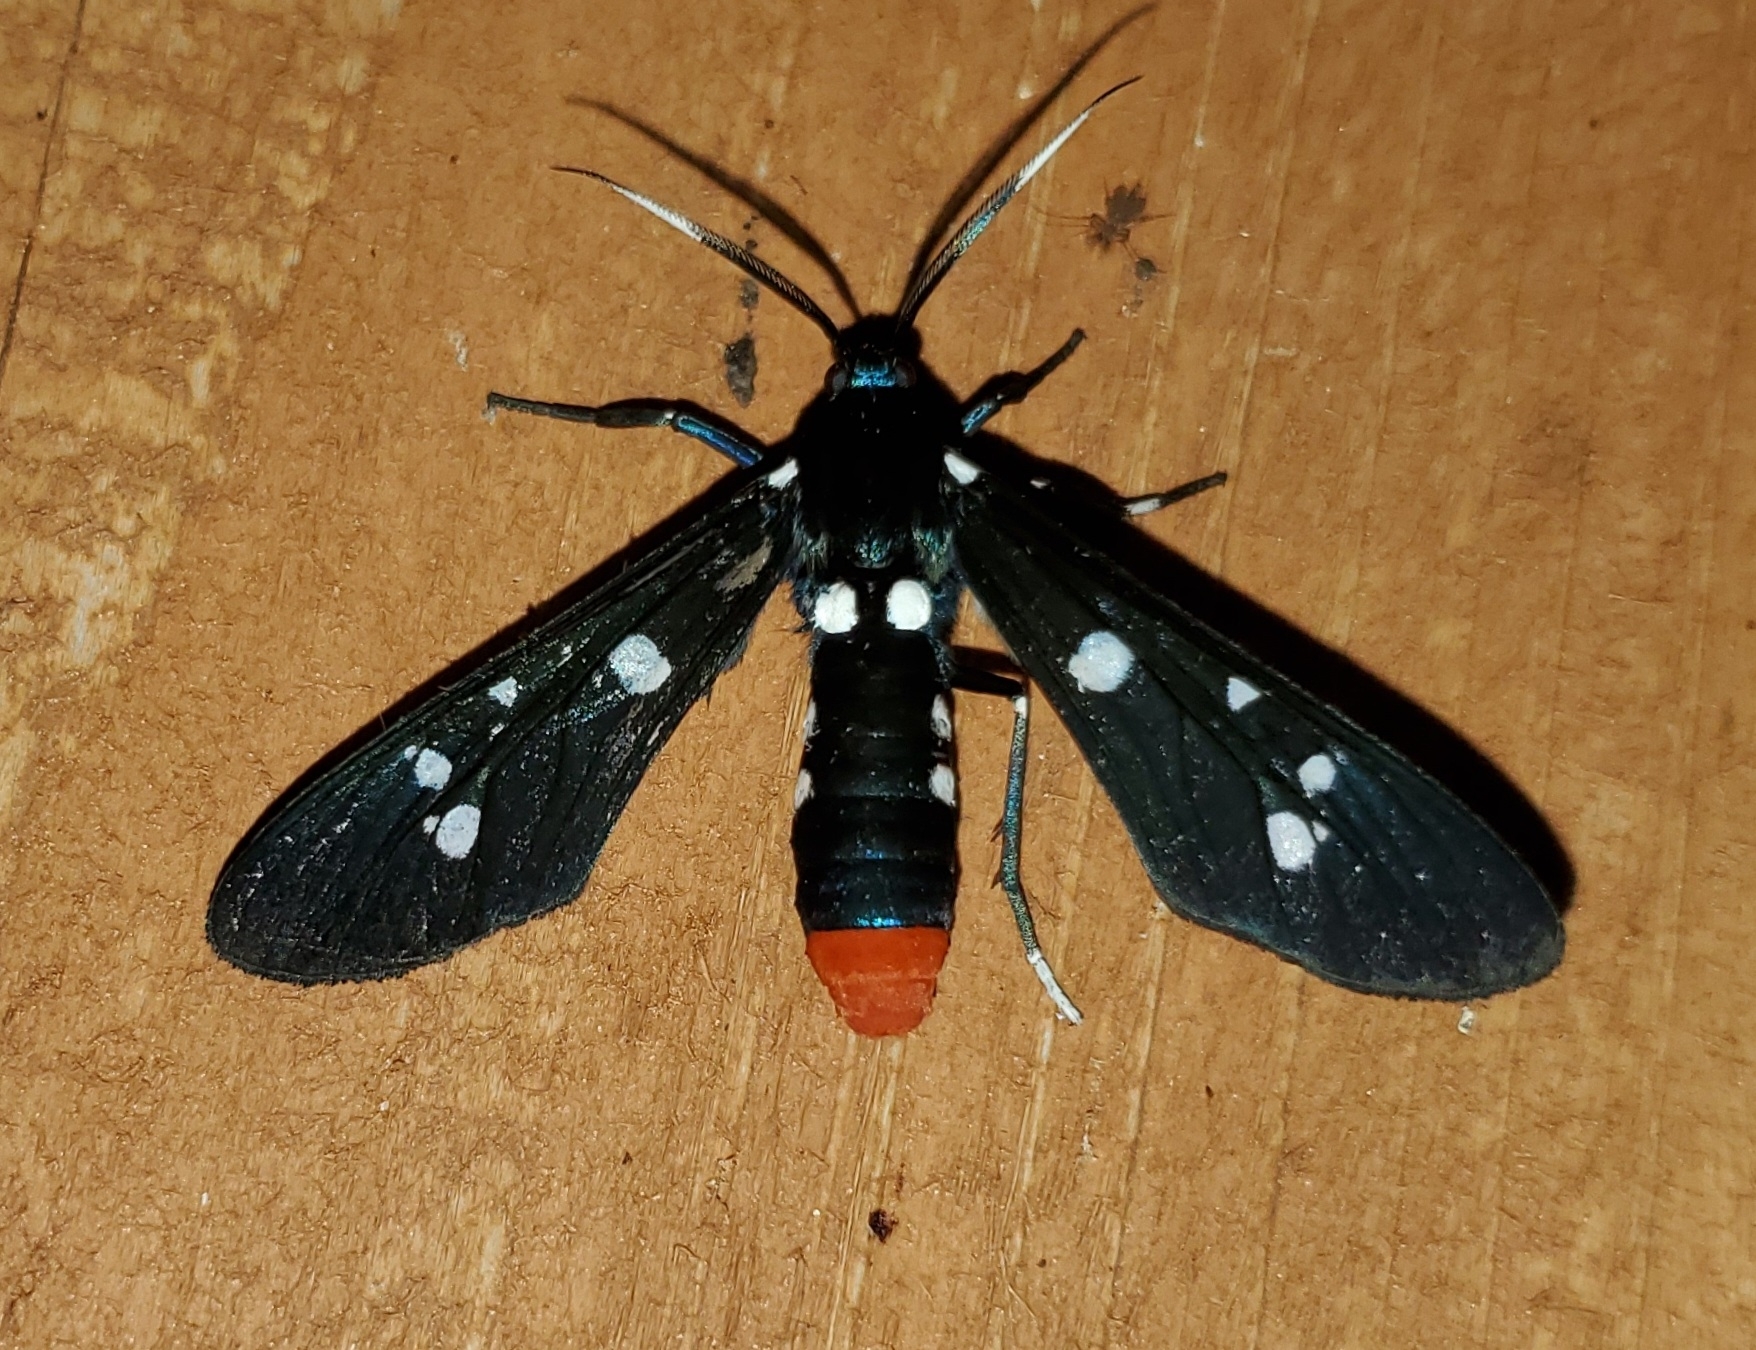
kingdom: Animalia
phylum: Arthropoda
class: Insecta
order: Lepidoptera
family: Erebidae
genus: Syntomeida
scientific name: Syntomeida epilais
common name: Polka-dot wasp moth
